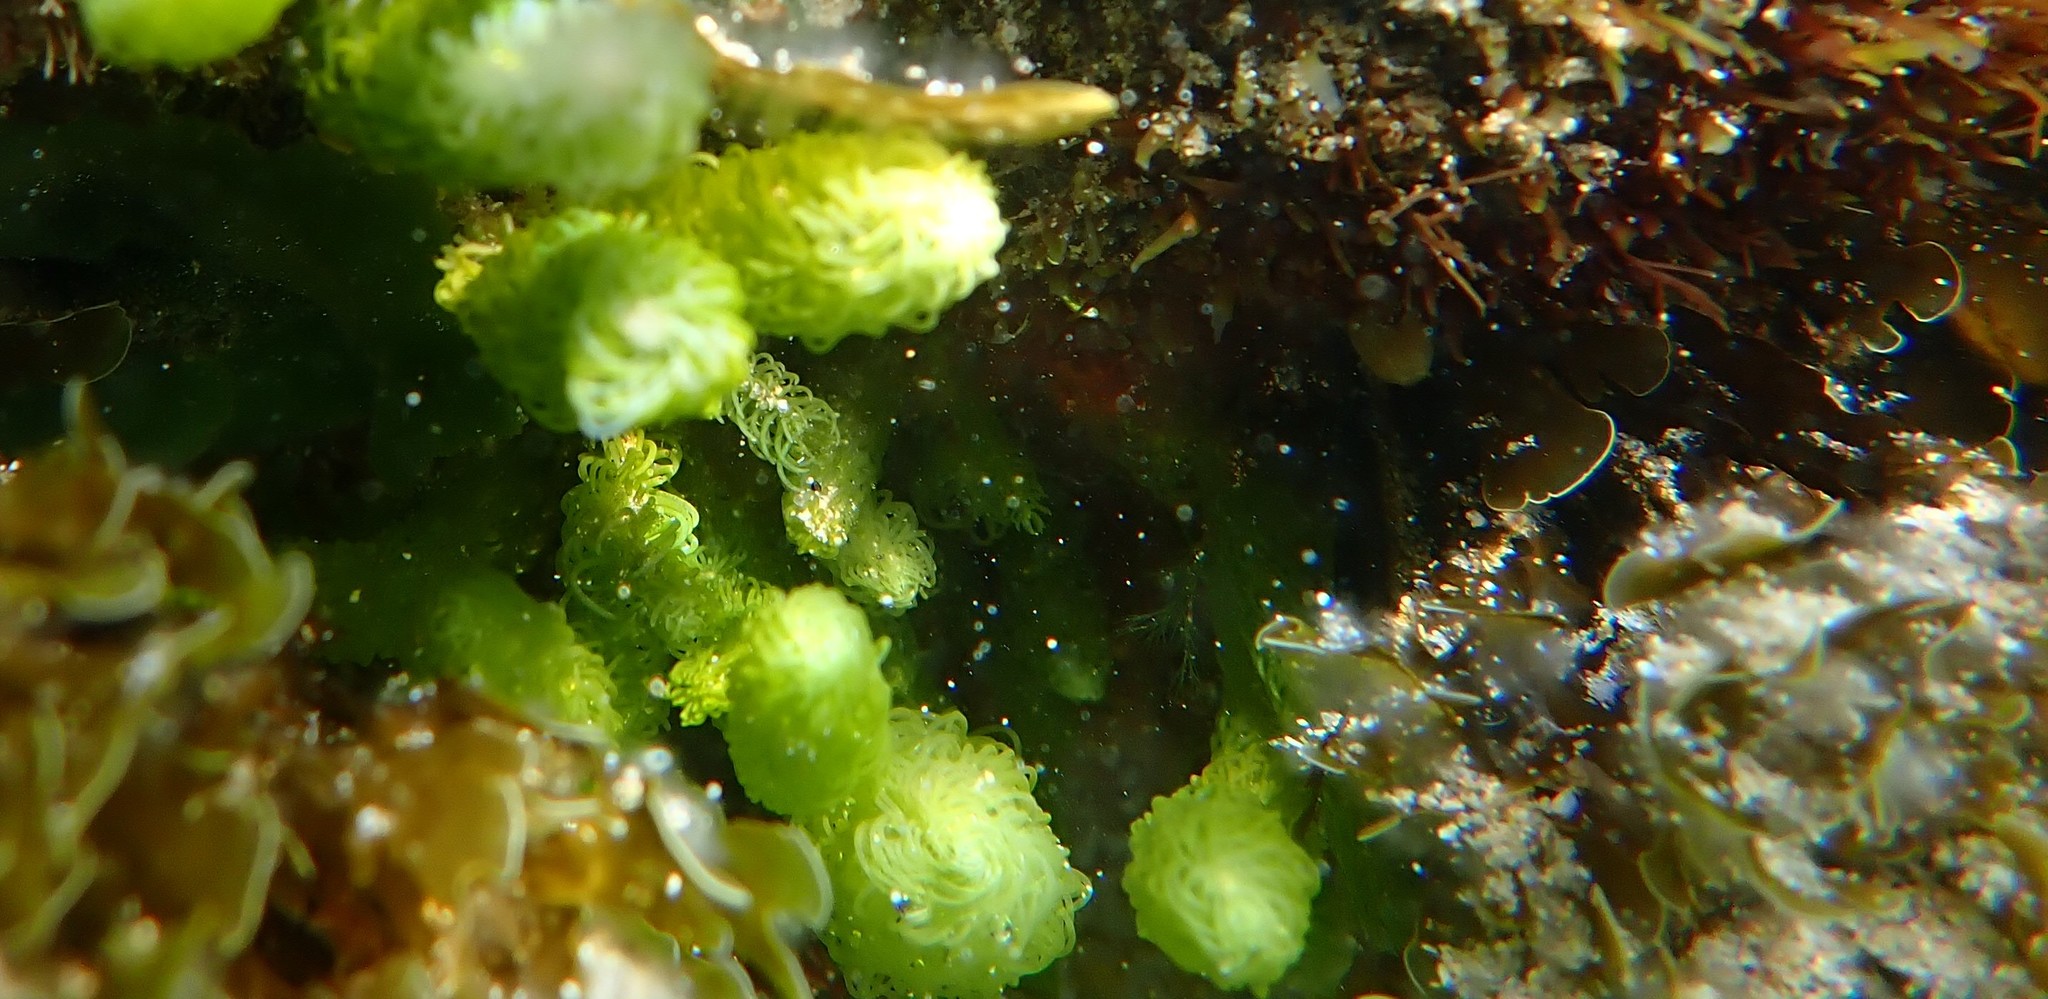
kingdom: Plantae
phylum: Chlorophyta
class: Ulvophyceae
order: Bryopsidales
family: Caulerpaceae
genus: Caulerpa
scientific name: Caulerpa
